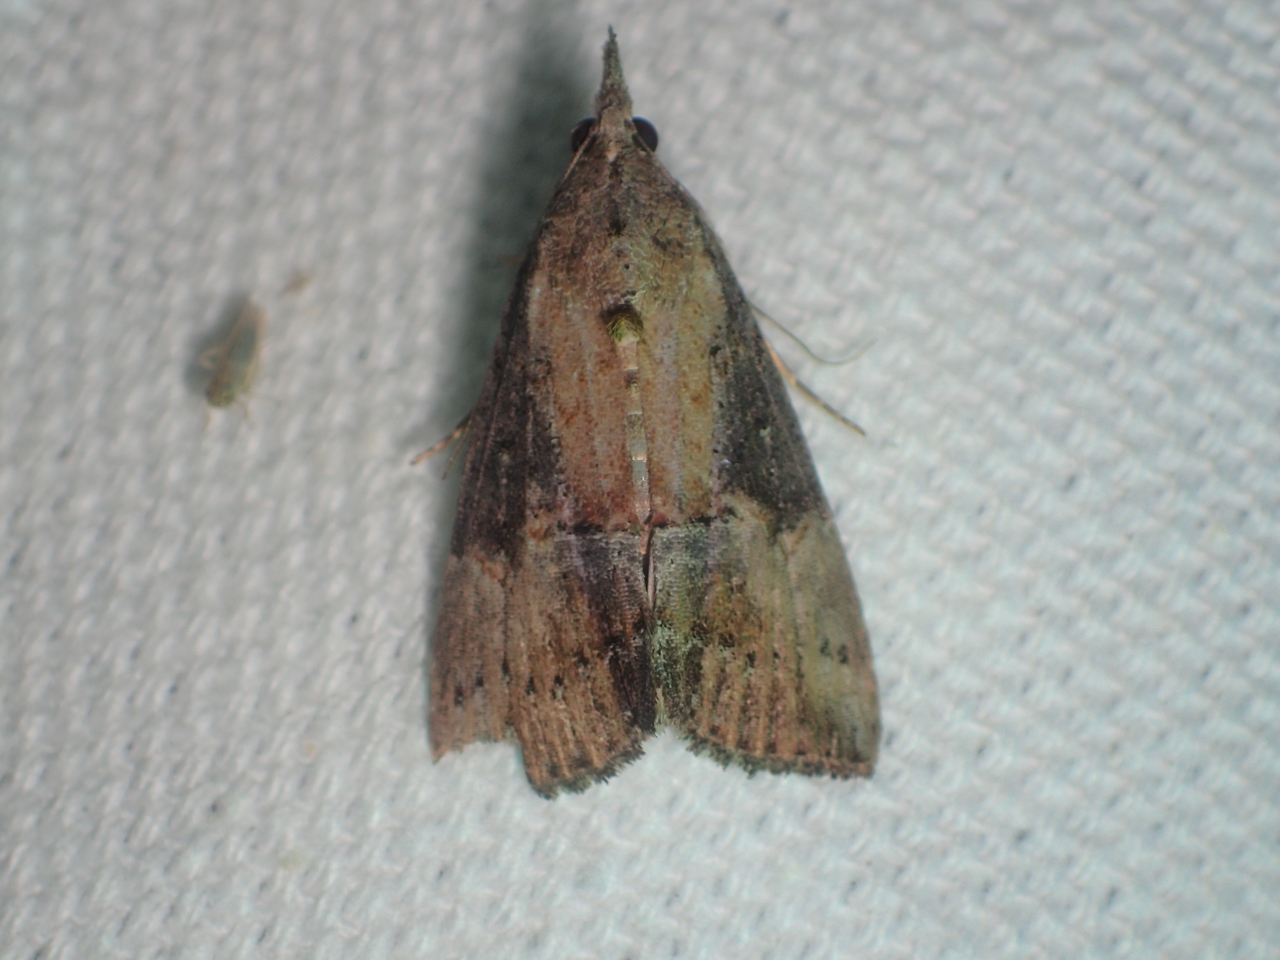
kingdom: Animalia
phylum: Arthropoda
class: Insecta
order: Lepidoptera
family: Erebidae
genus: Hypena
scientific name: Hypena scabra
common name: Green cloverworm
